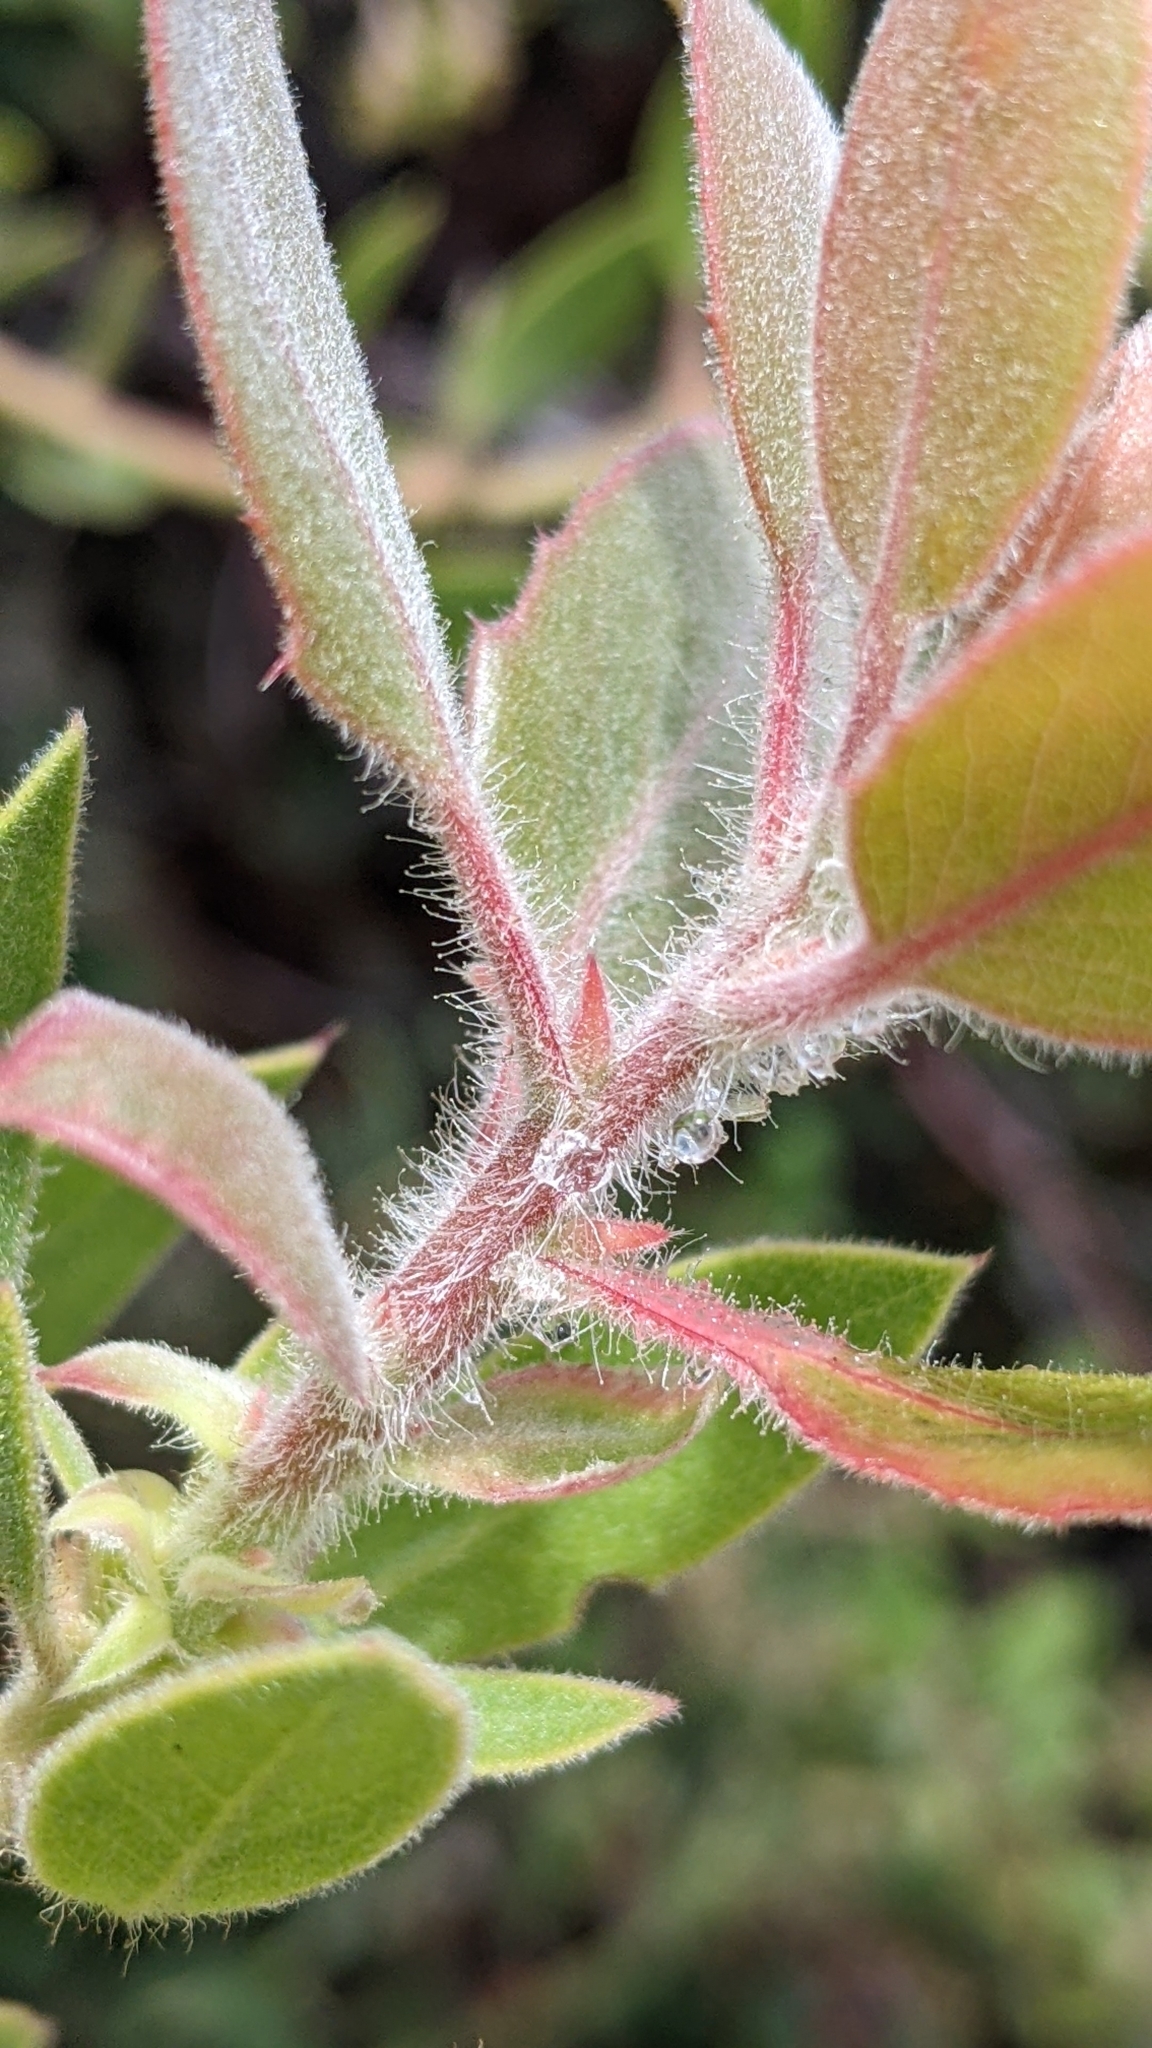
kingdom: Plantae
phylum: Tracheophyta
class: Magnoliopsida
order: Ericales
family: Ericaceae
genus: Arctostaphylos
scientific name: Arctostaphylos glandulosa
